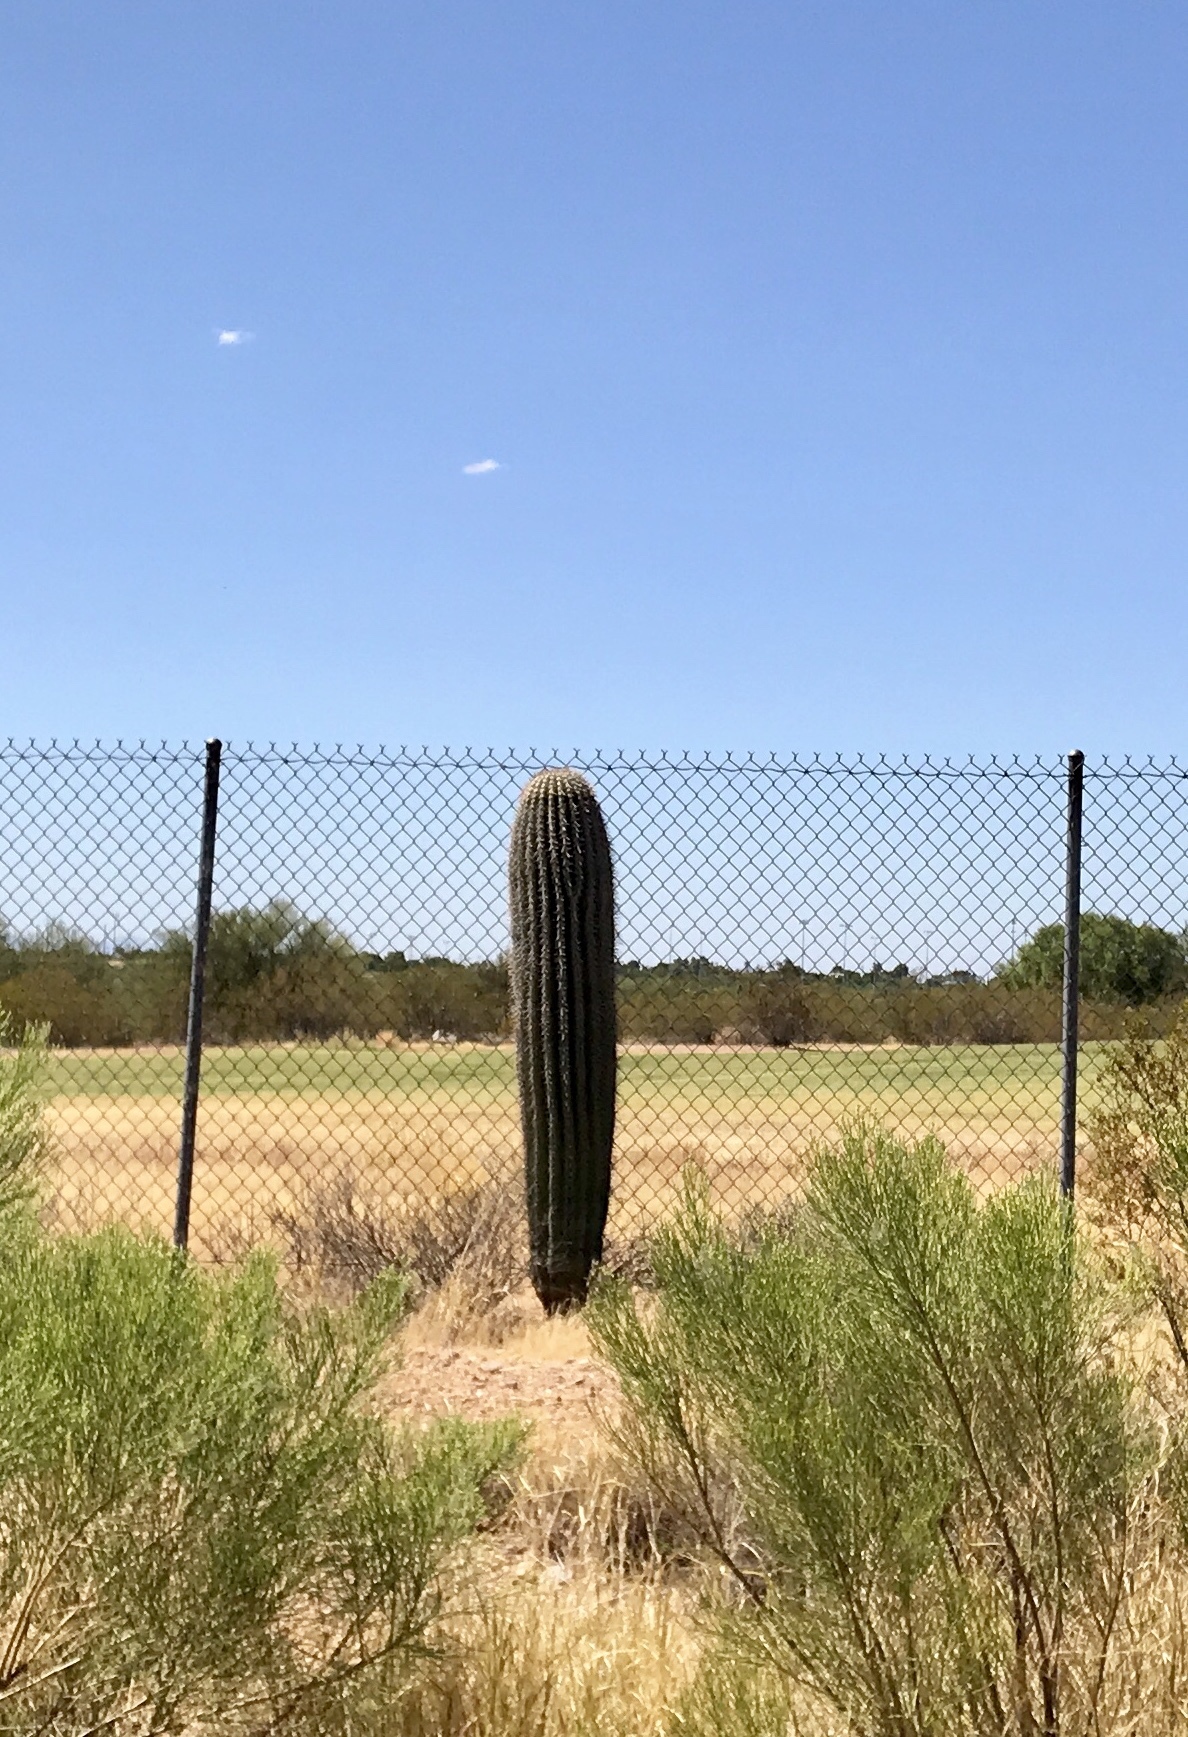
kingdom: Plantae
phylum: Tracheophyta
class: Magnoliopsida
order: Caryophyllales
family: Cactaceae
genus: Carnegiea
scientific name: Carnegiea gigantea
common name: Saguaro
